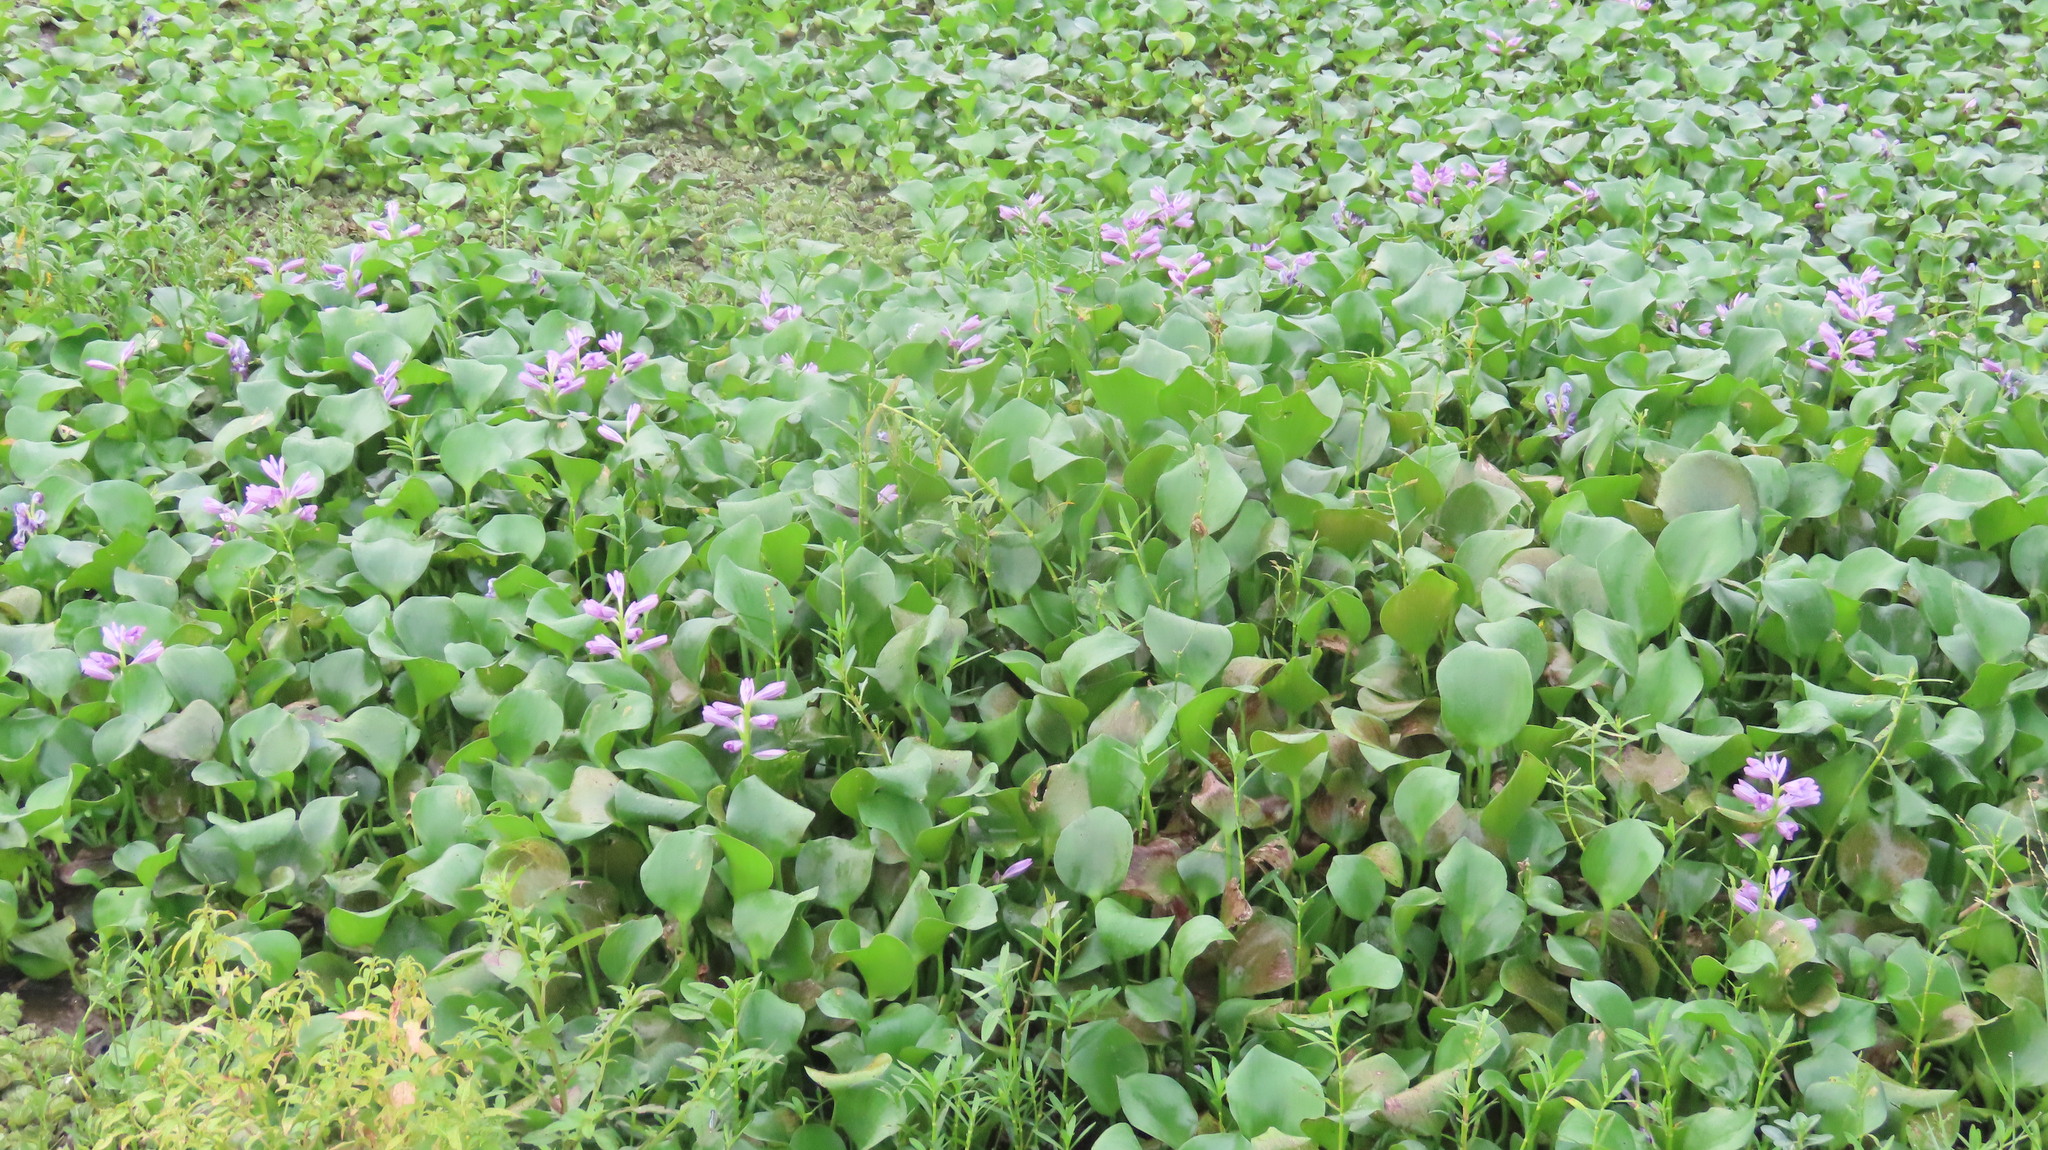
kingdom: Plantae
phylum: Tracheophyta
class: Liliopsida
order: Commelinales
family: Pontederiaceae
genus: Pontederia
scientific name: Pontederia crassipes
